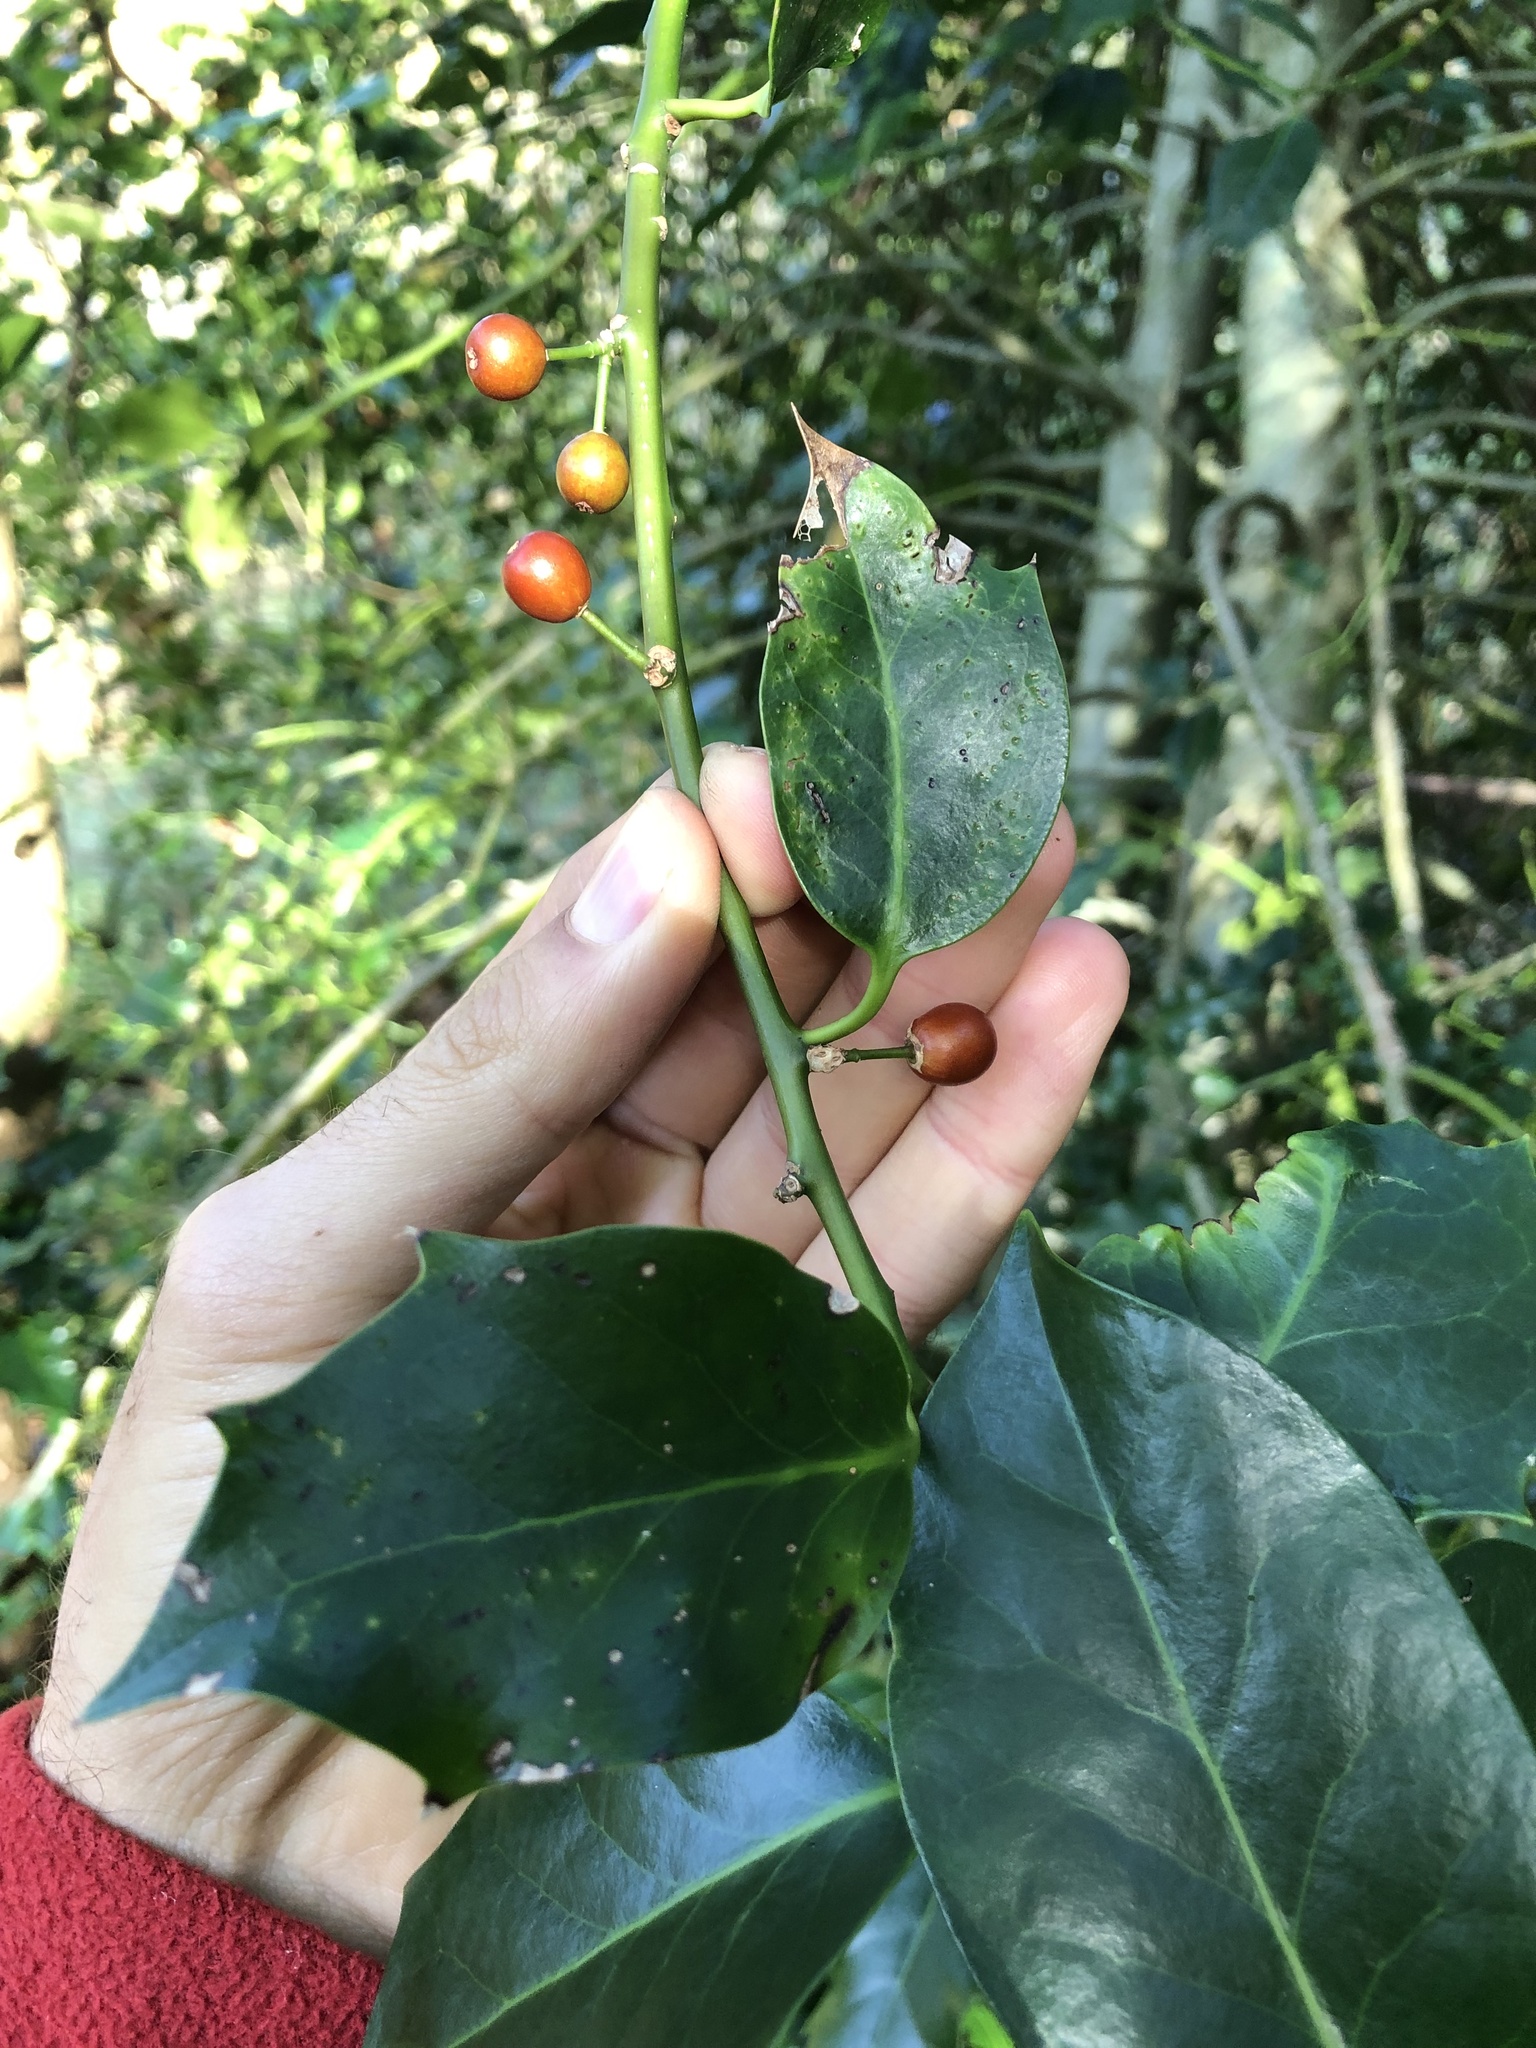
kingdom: Plantae
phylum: Tracheophyta
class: Magnoliopsida
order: Aquifoliales
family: Aquifoliaceae
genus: Ilex
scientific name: Ilex aquifolium
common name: English holly
